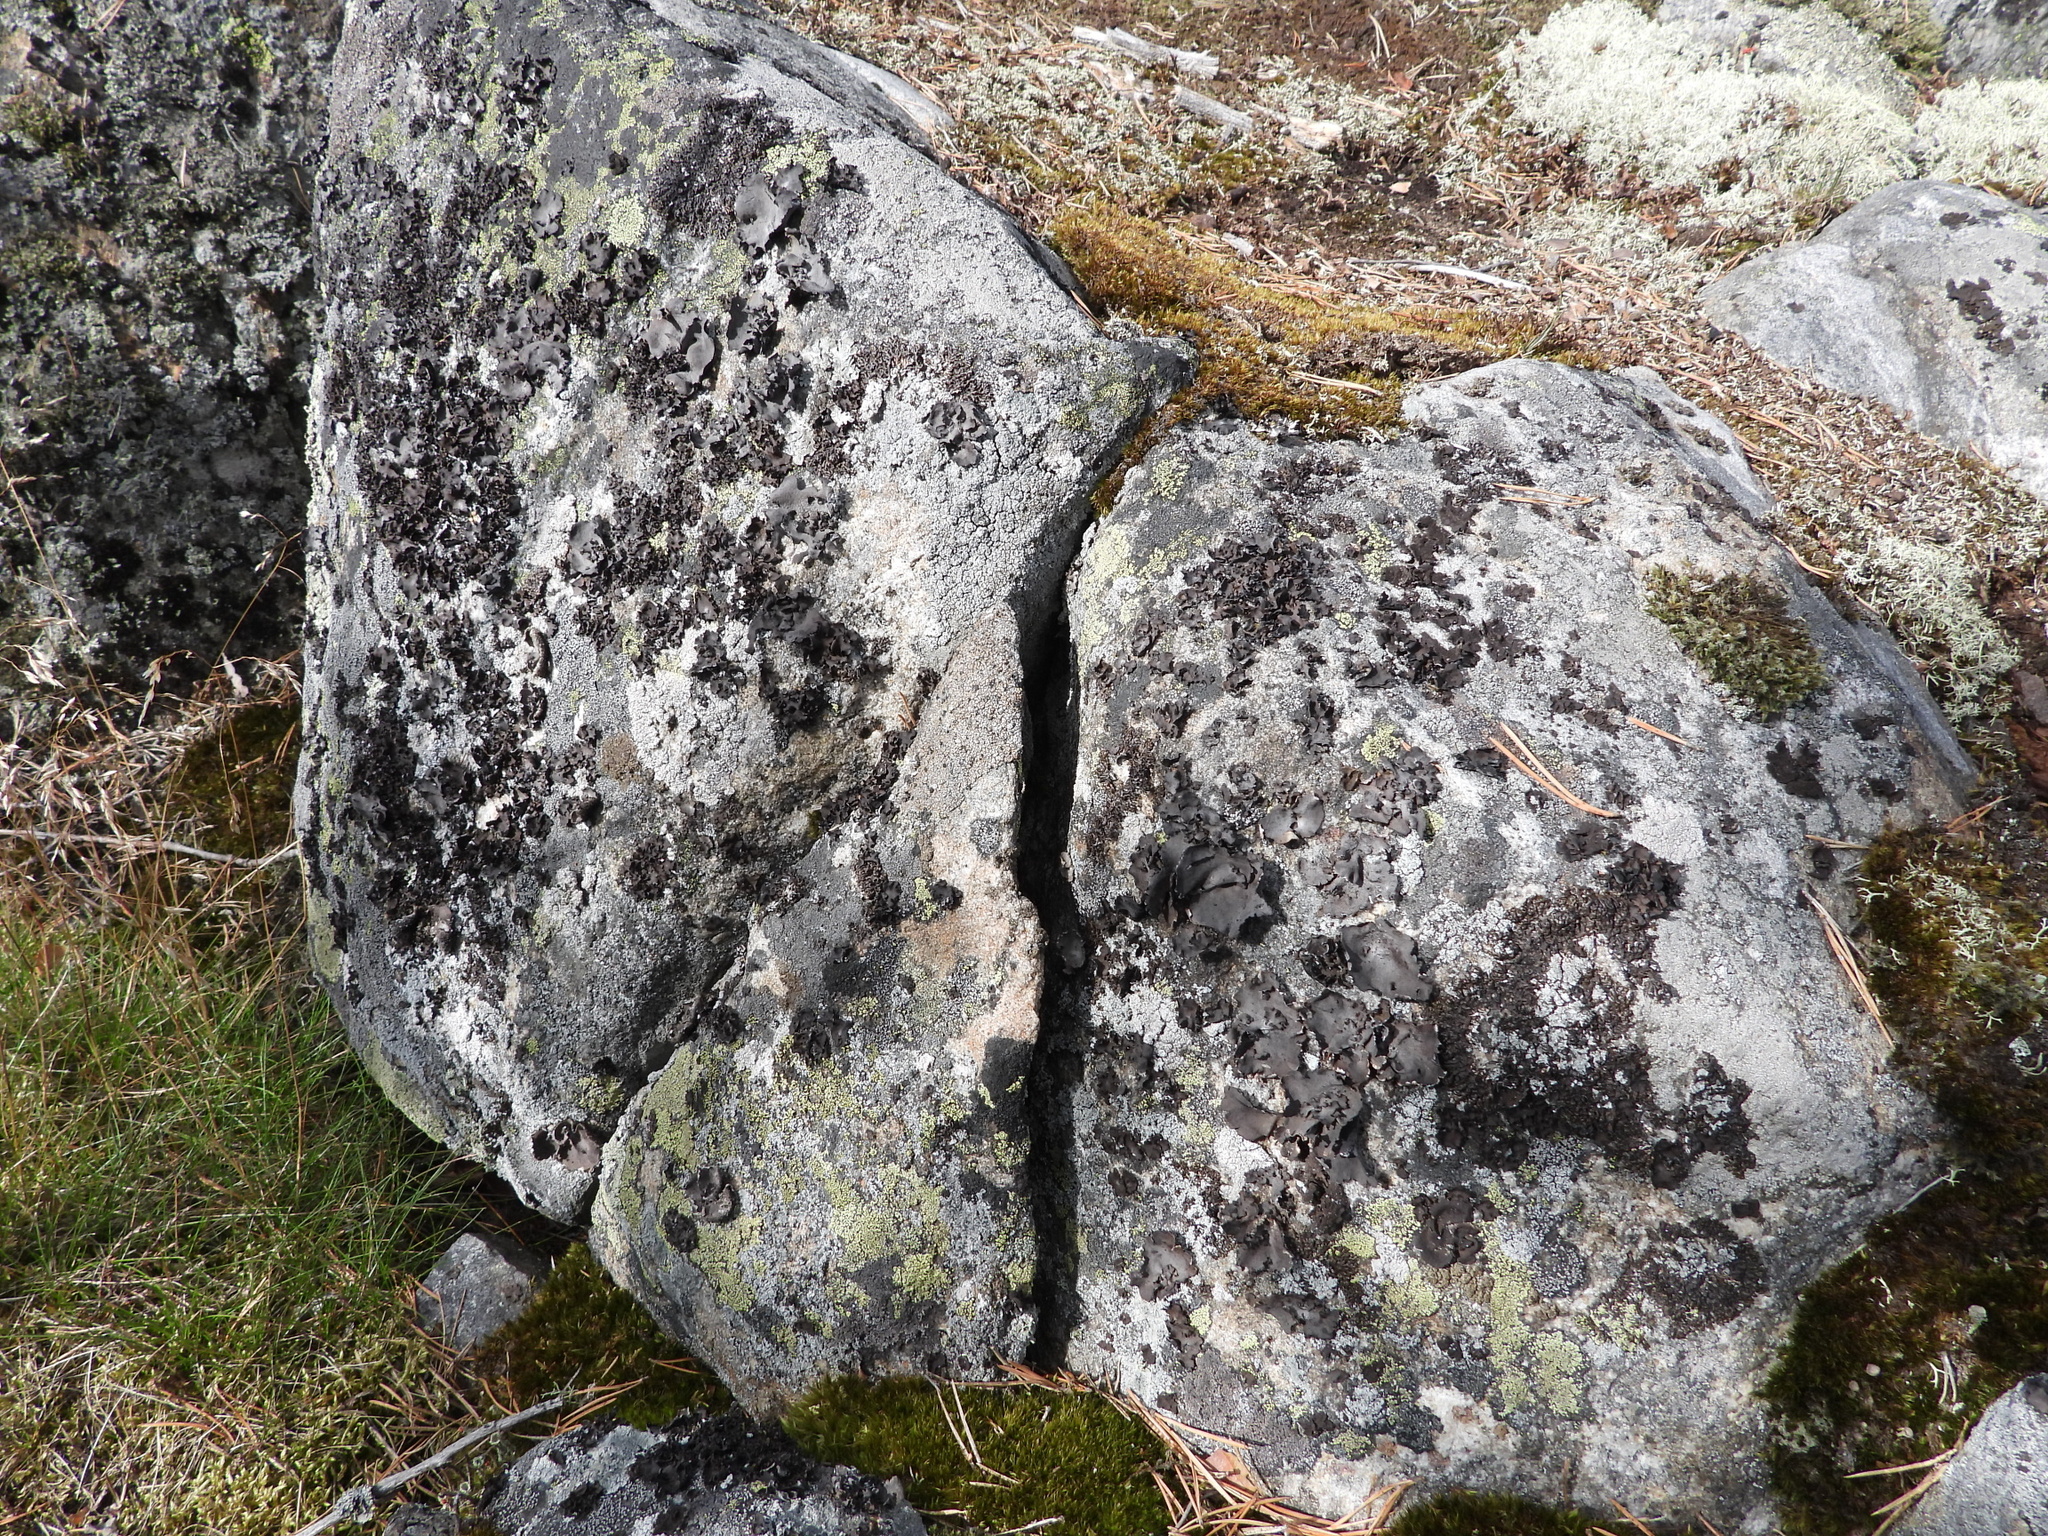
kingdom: Fungi
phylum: Ascomycota
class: Lecanoromycetes
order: Umbilicariales
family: Umbilicariaceae
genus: Umbilicaria
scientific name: Umbilicaria polyphylla
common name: Petalled rocktripe lichen
